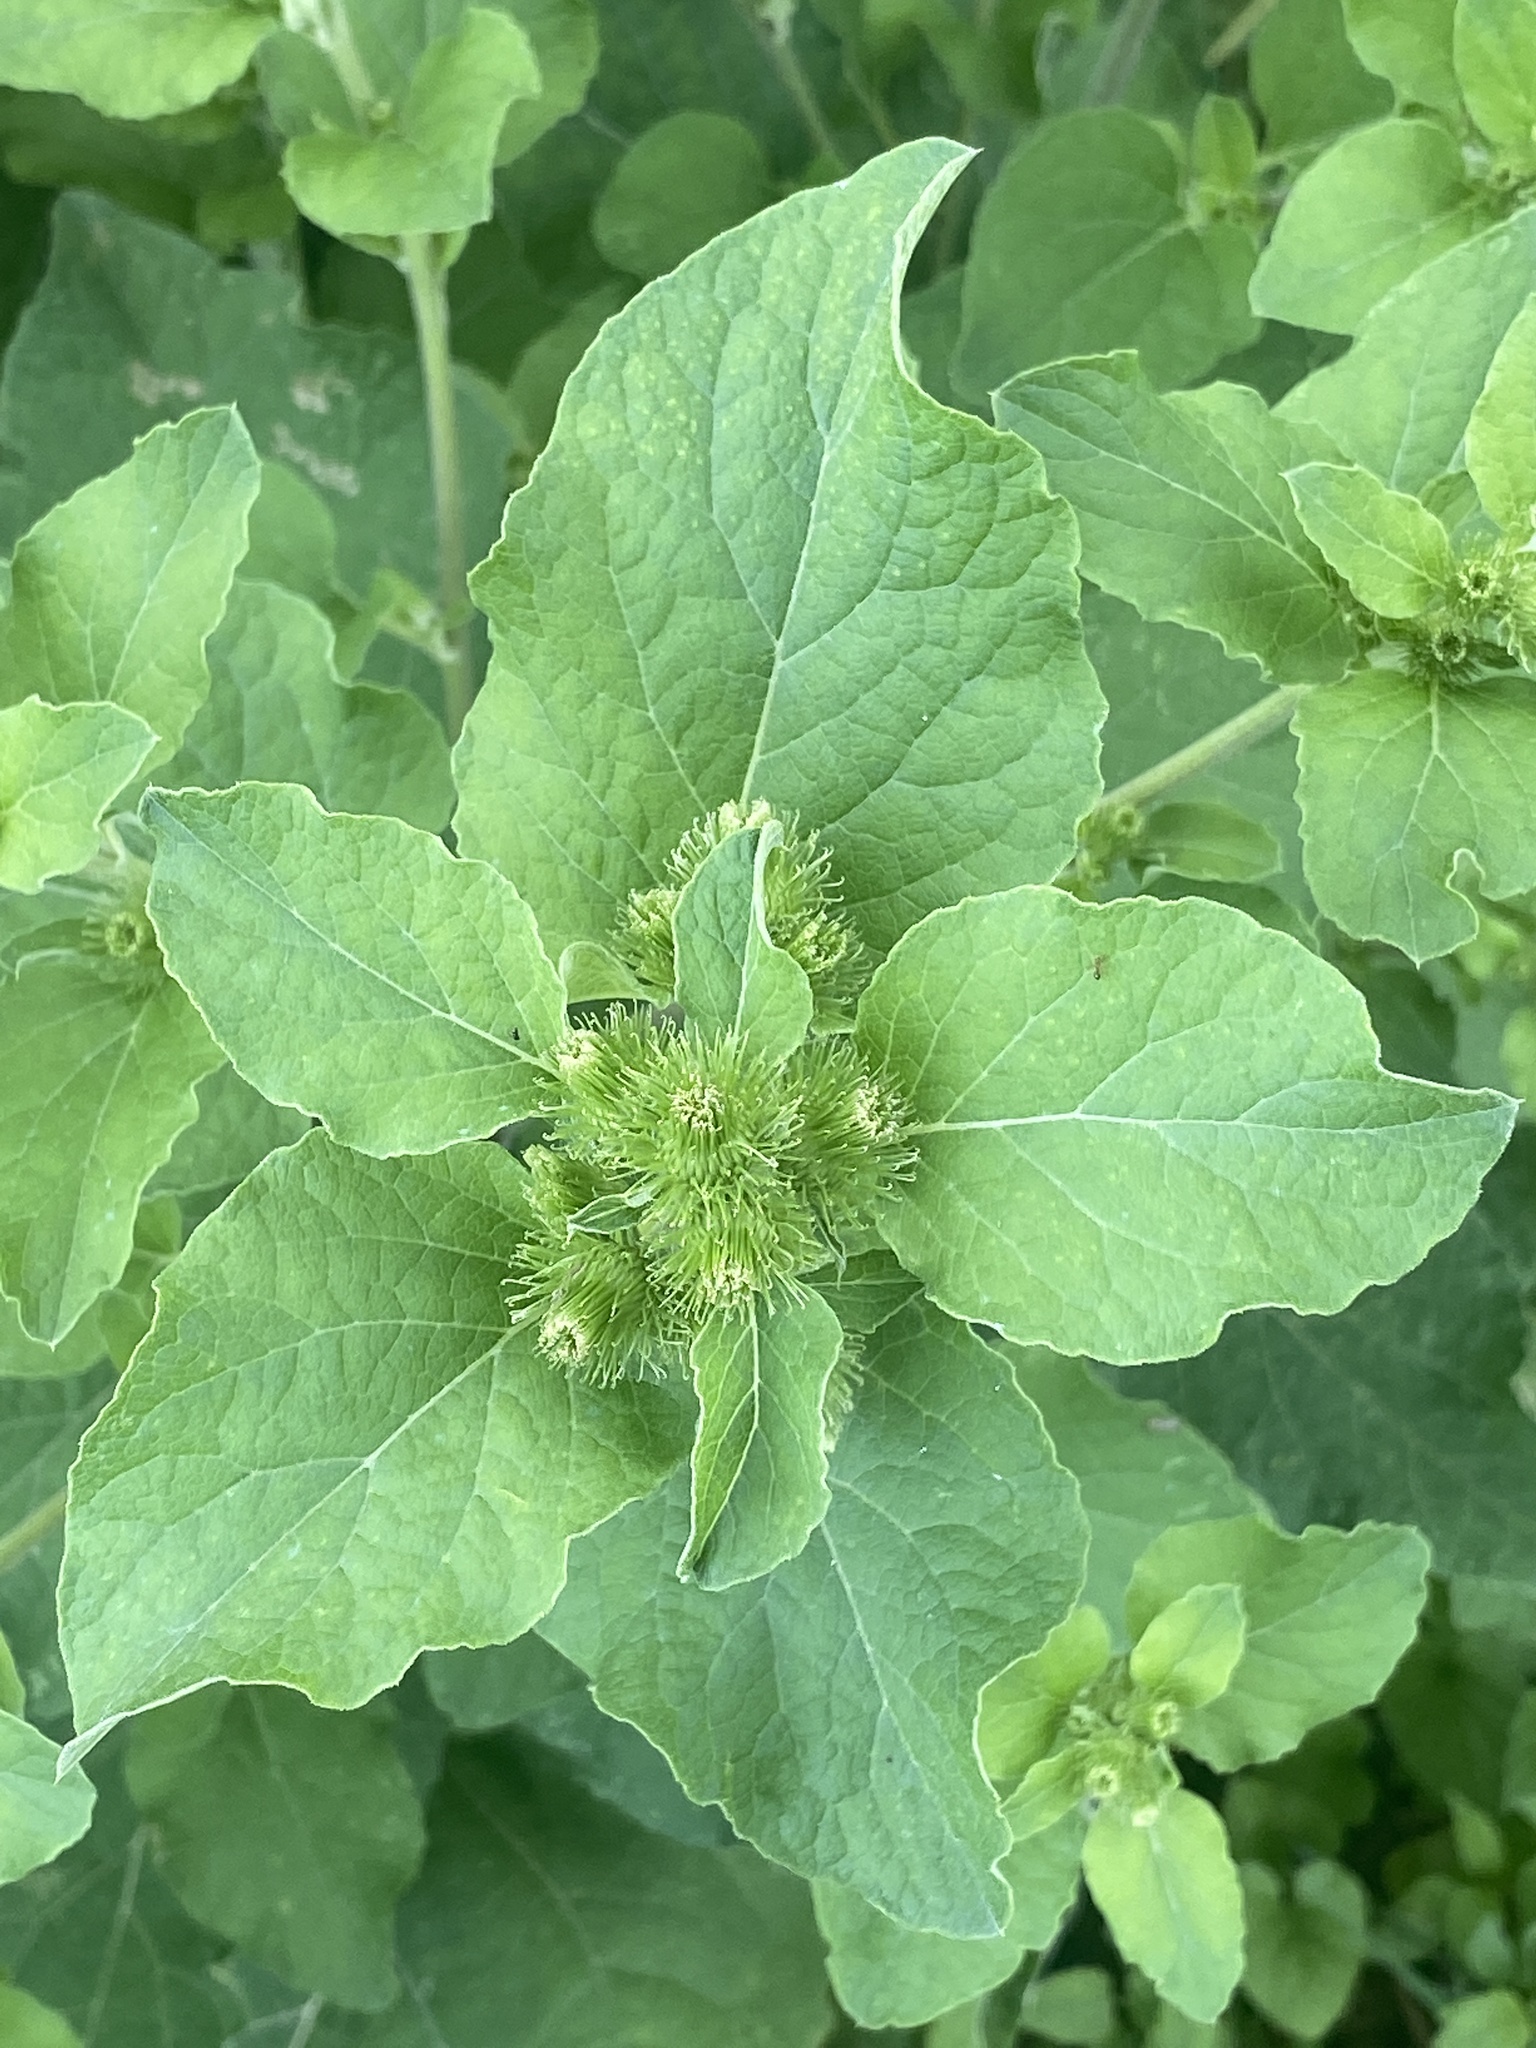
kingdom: Plantae
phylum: Tracheophyta
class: Magnoliopsida
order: Asterales
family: Asteraceae
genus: Arctium
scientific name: Arctium minus
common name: Lesser burdock
